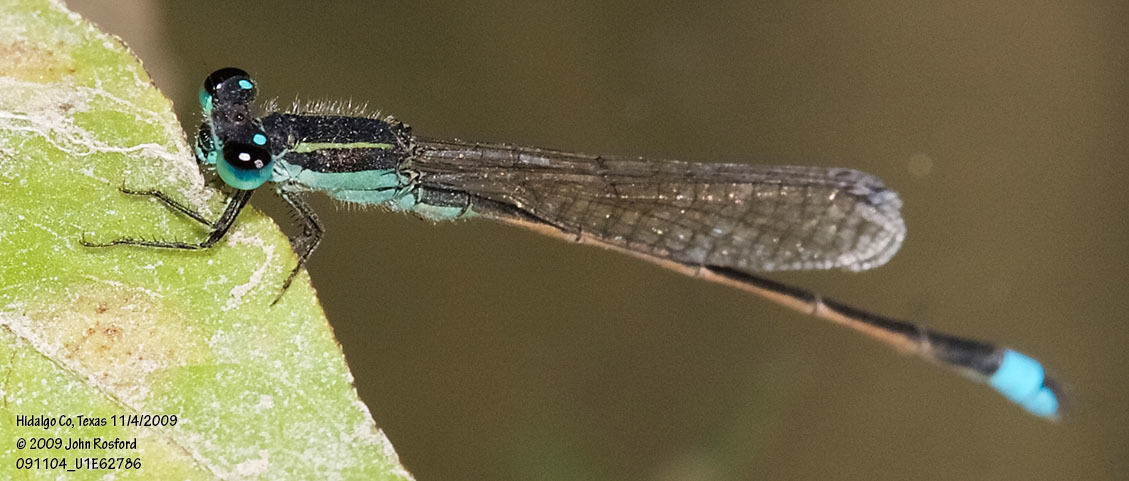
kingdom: Animalia
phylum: Arthropoda
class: Insecta
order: Odonata
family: Coenagrionidae
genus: Ischnura
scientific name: Ischnura ramburii
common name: Rambur's forktail
